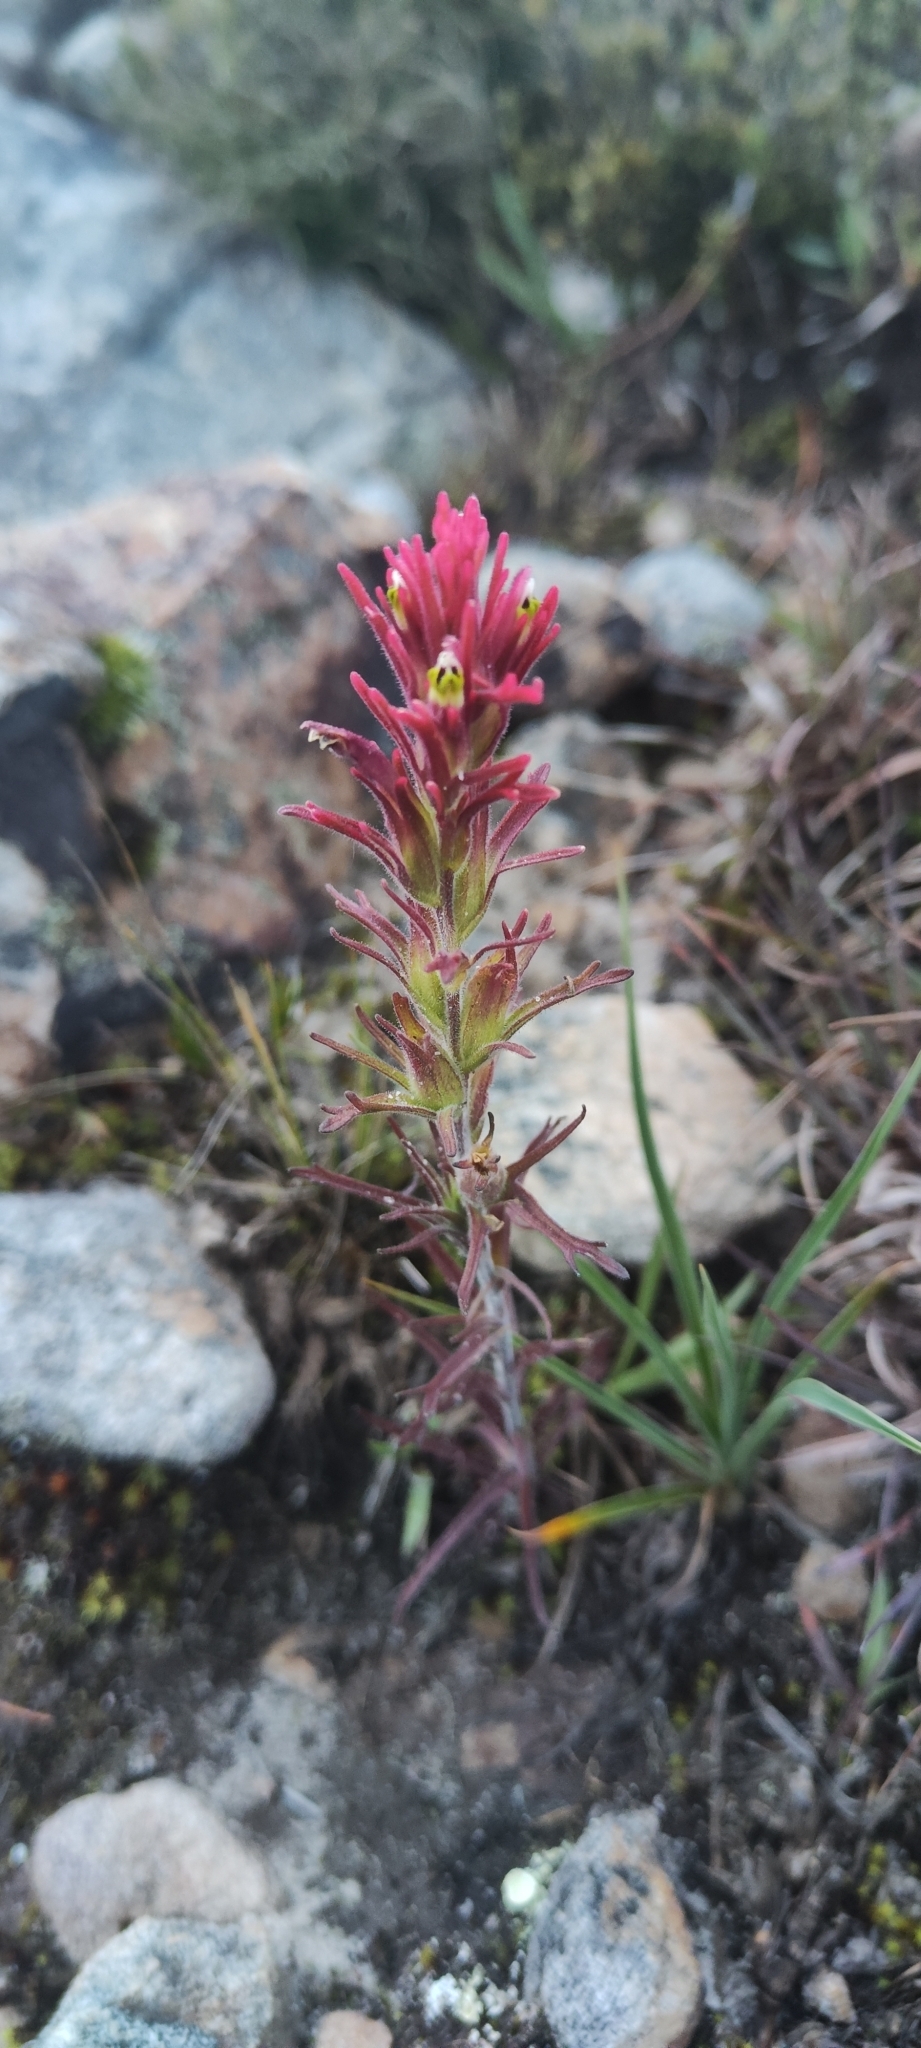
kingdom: Plantae
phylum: Tracheophyta
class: Magnoliopsida
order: Lamiales
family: Orobanchaceae
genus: Castilleja
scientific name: Castilleja peruviana
